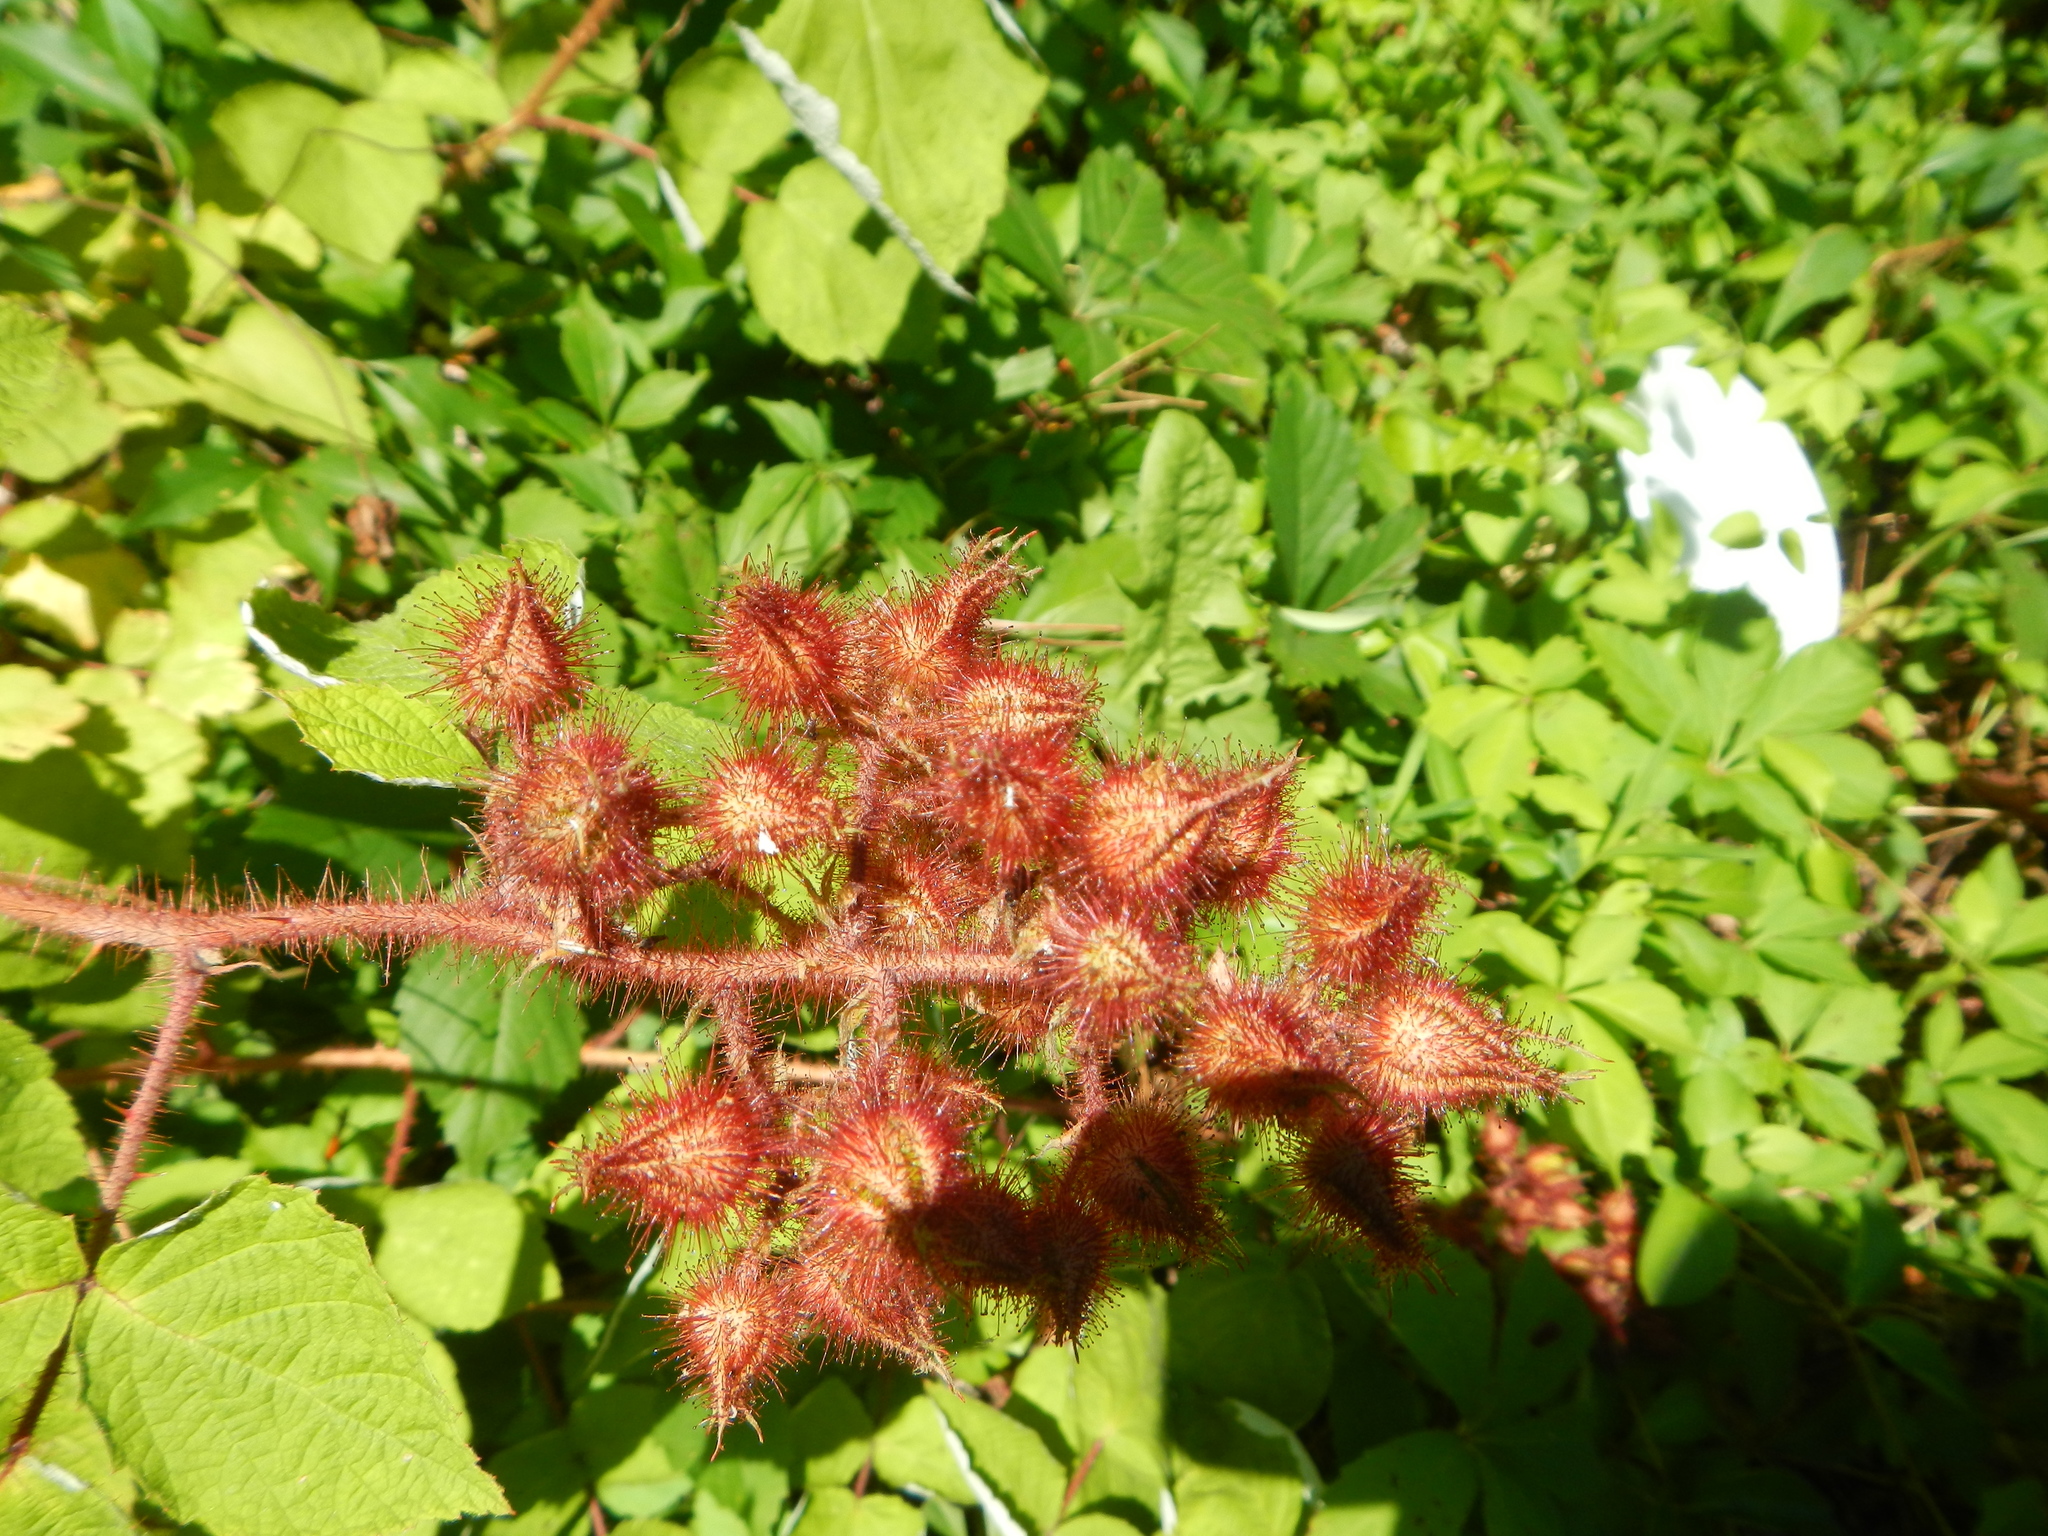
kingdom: Plantae
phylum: Tracheophyta
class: Magnoliopsida
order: Rosales
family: Rosaceae
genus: Rubus
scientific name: Rubus phoenicolasius
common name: Japanese wineberry
